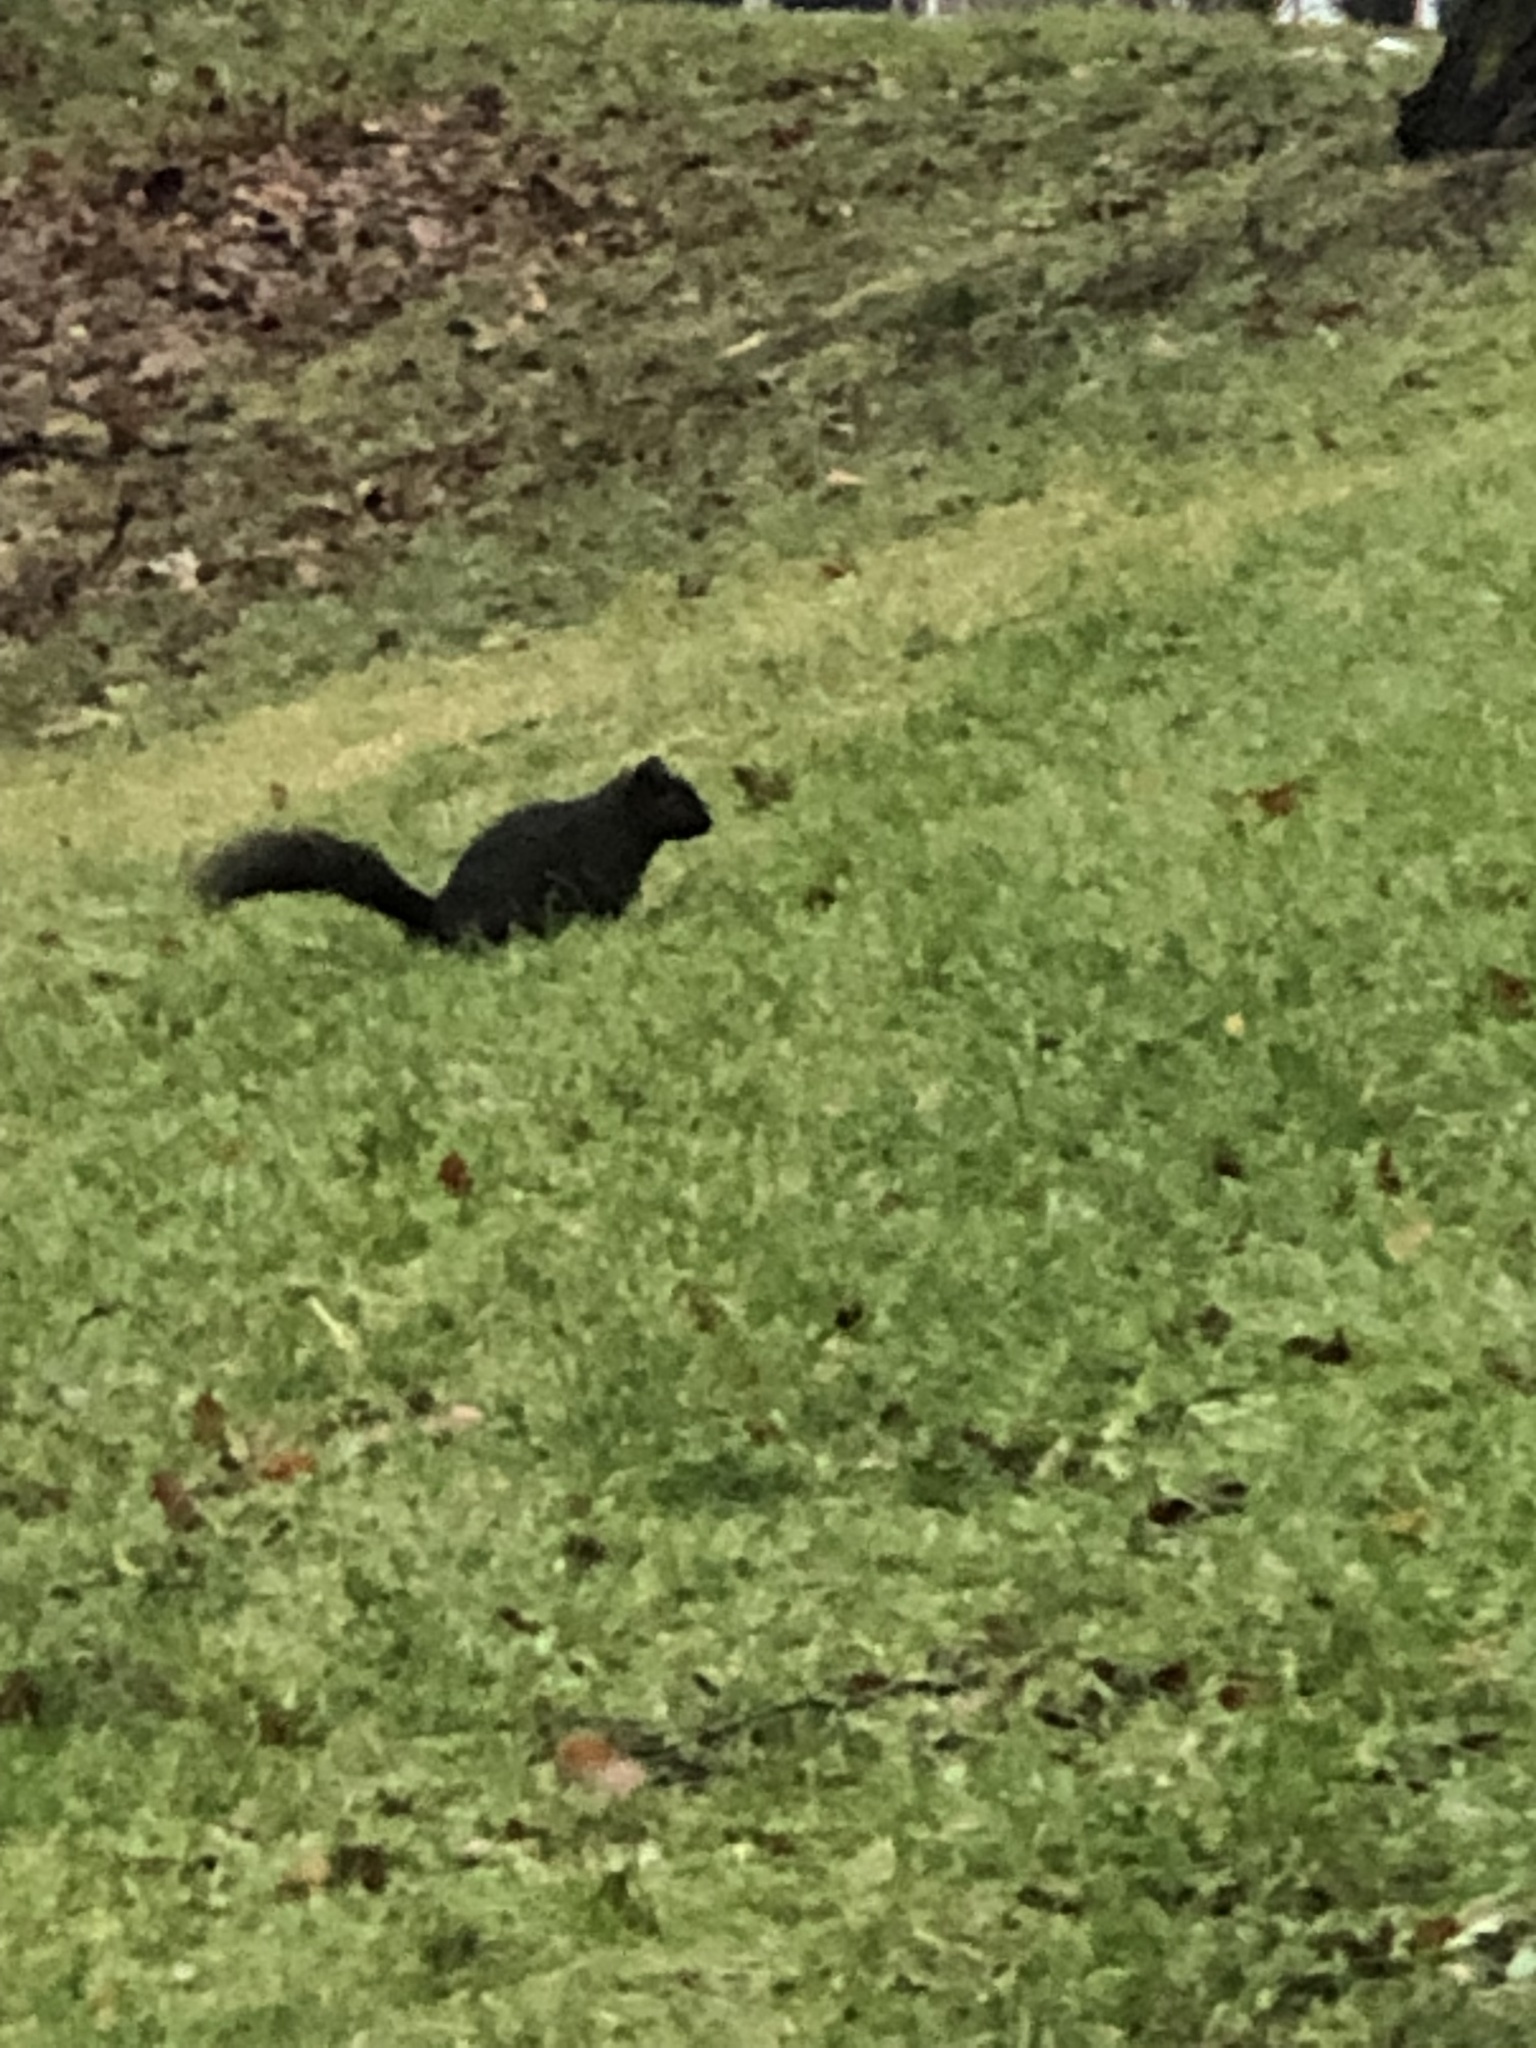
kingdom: Animalia
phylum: Chordata
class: Mammalia
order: Rodentia
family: Sciuridae
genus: Sciurus
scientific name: Sciurus carolinensis
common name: Eastern gray squirrel
